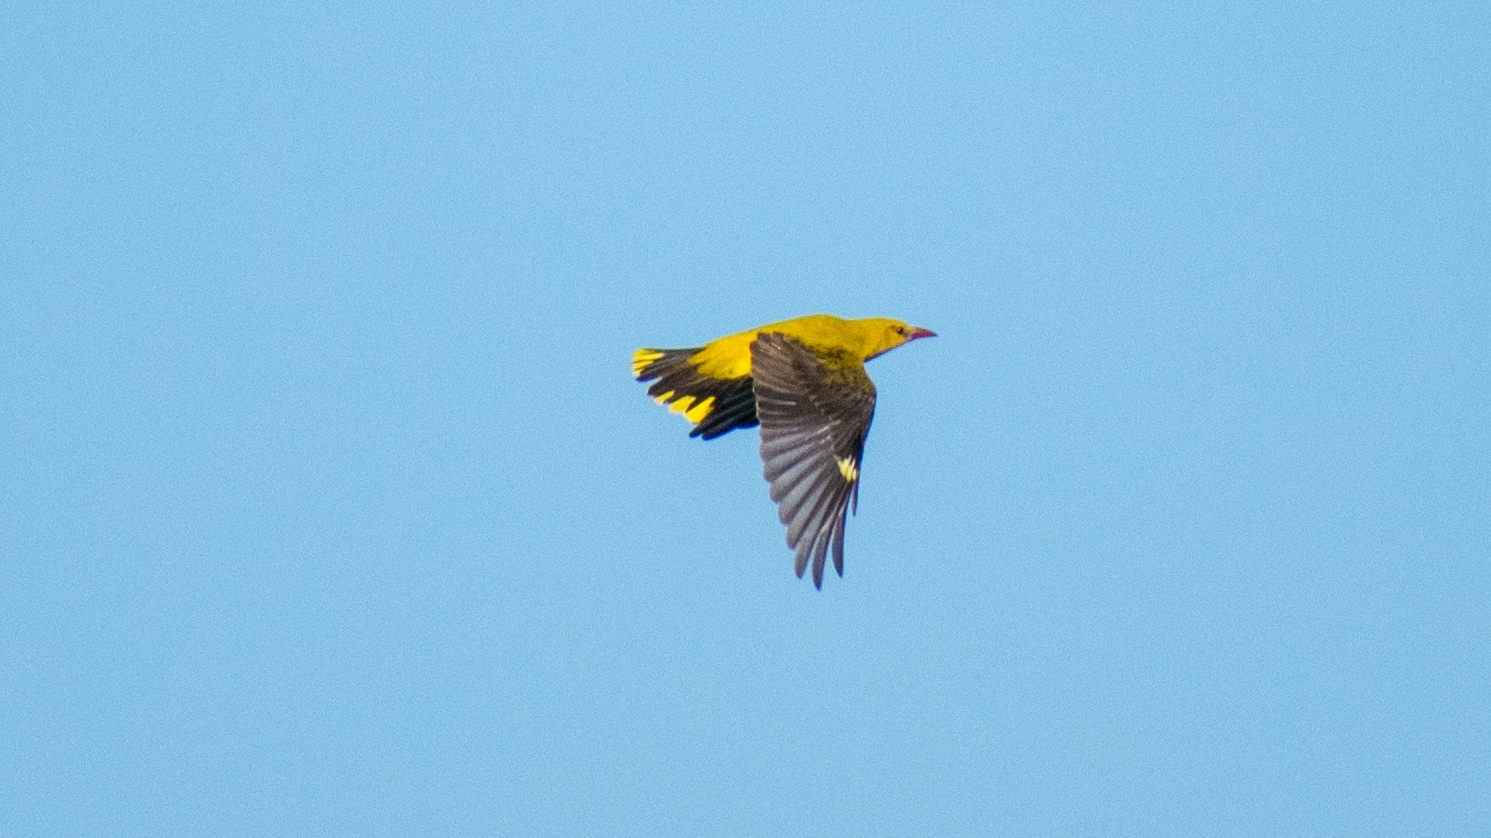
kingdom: Animalia
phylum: Chordata
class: Aves
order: Passeriformes
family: Oriolidae
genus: Oriolus
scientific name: Oriolus oriolus
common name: Eurasian golden oriole
